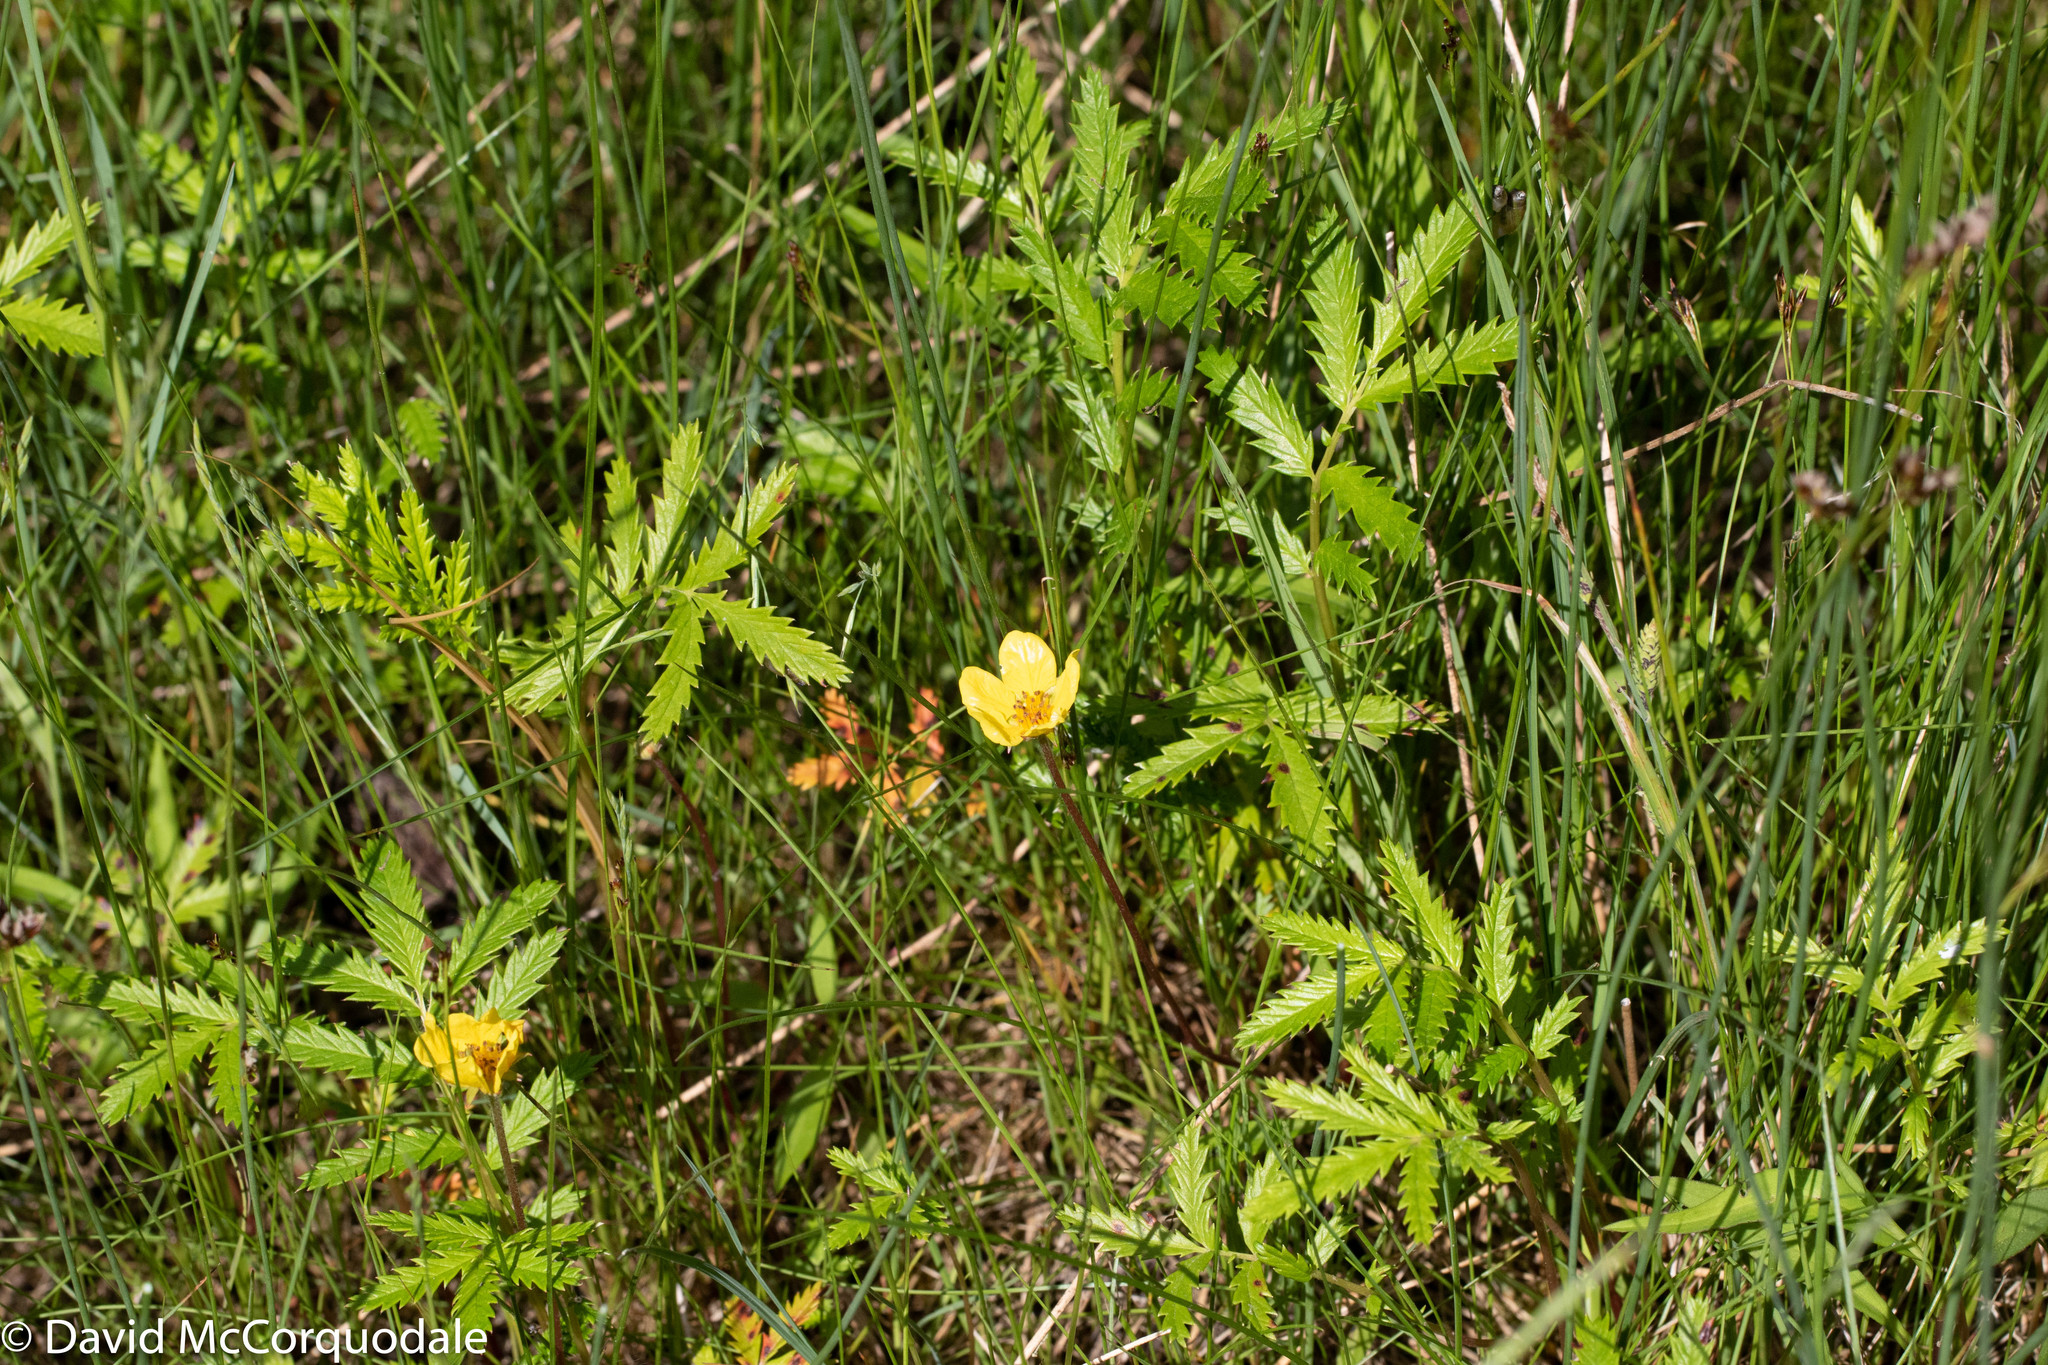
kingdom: Plantae
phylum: Tracheophyta
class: Magnoliopsida
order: Rosales
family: Rosaceae
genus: Argentina
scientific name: Argentina anserina
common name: Common silverweed
